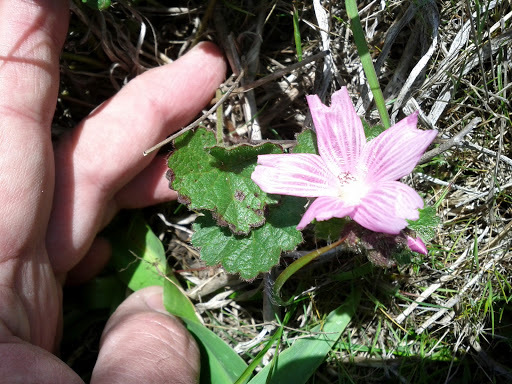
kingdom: Plantae
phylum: Tracheophyta
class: Magnoliopsida
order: Malvales
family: Malvaceae
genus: Sidalcea
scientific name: Sidalcea malviflora
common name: Greek mallow
